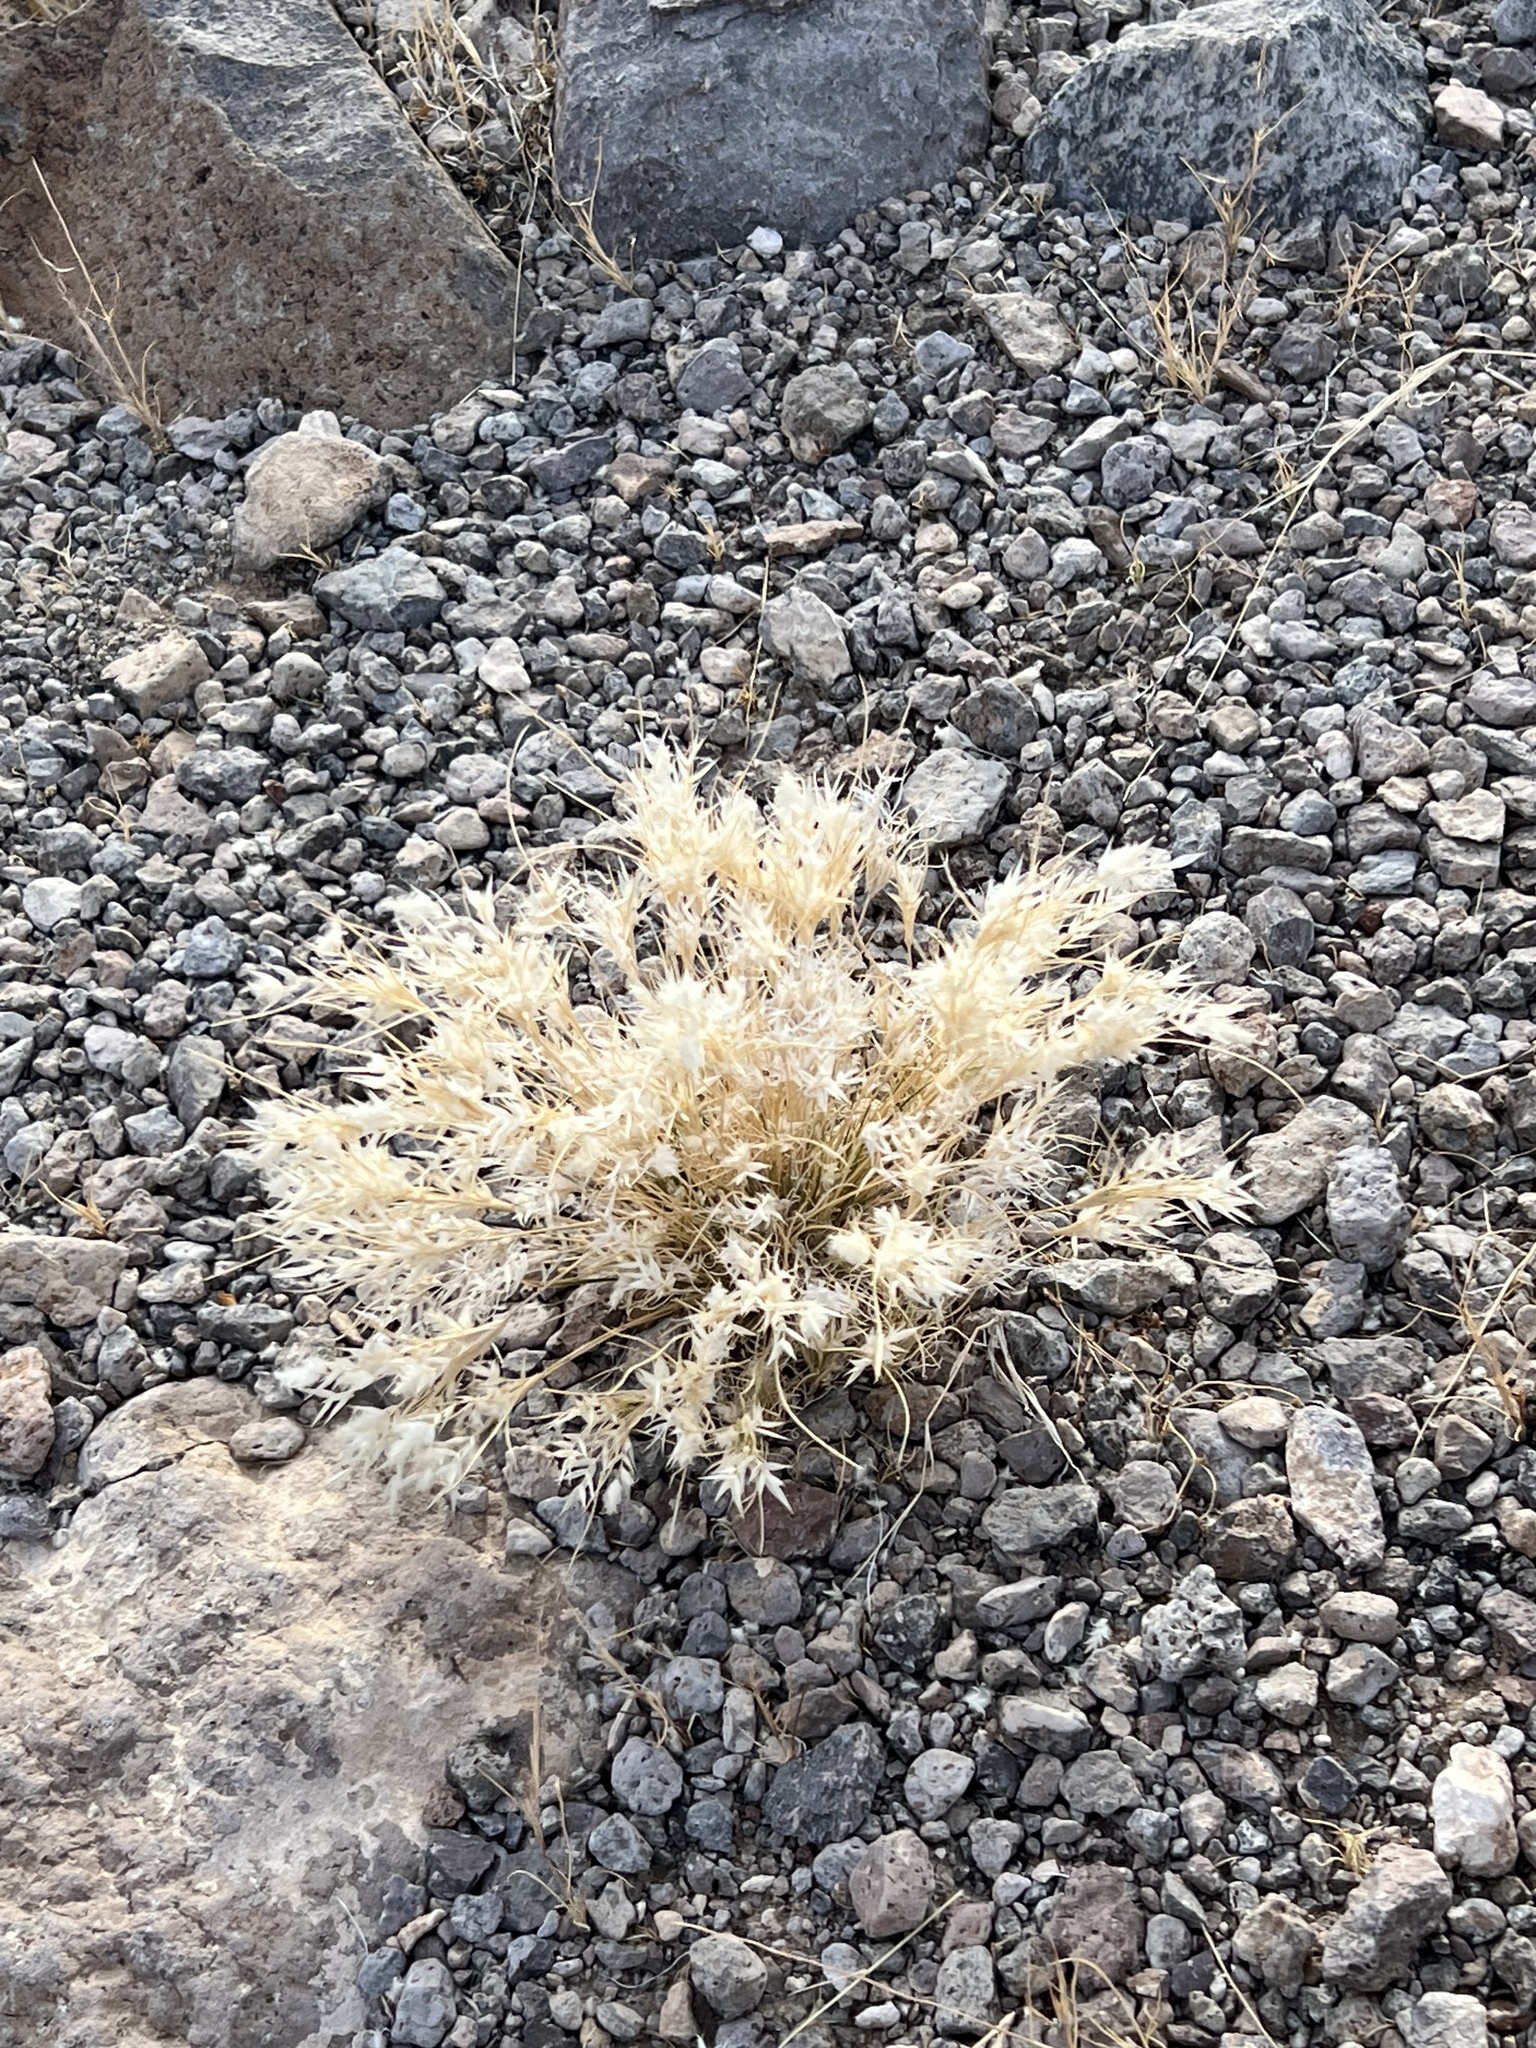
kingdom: Plantae
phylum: Tracheophyta
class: Liliopsida
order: Poales
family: Poaceae
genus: Dasyochloa
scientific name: Dasyochloa pulchella
